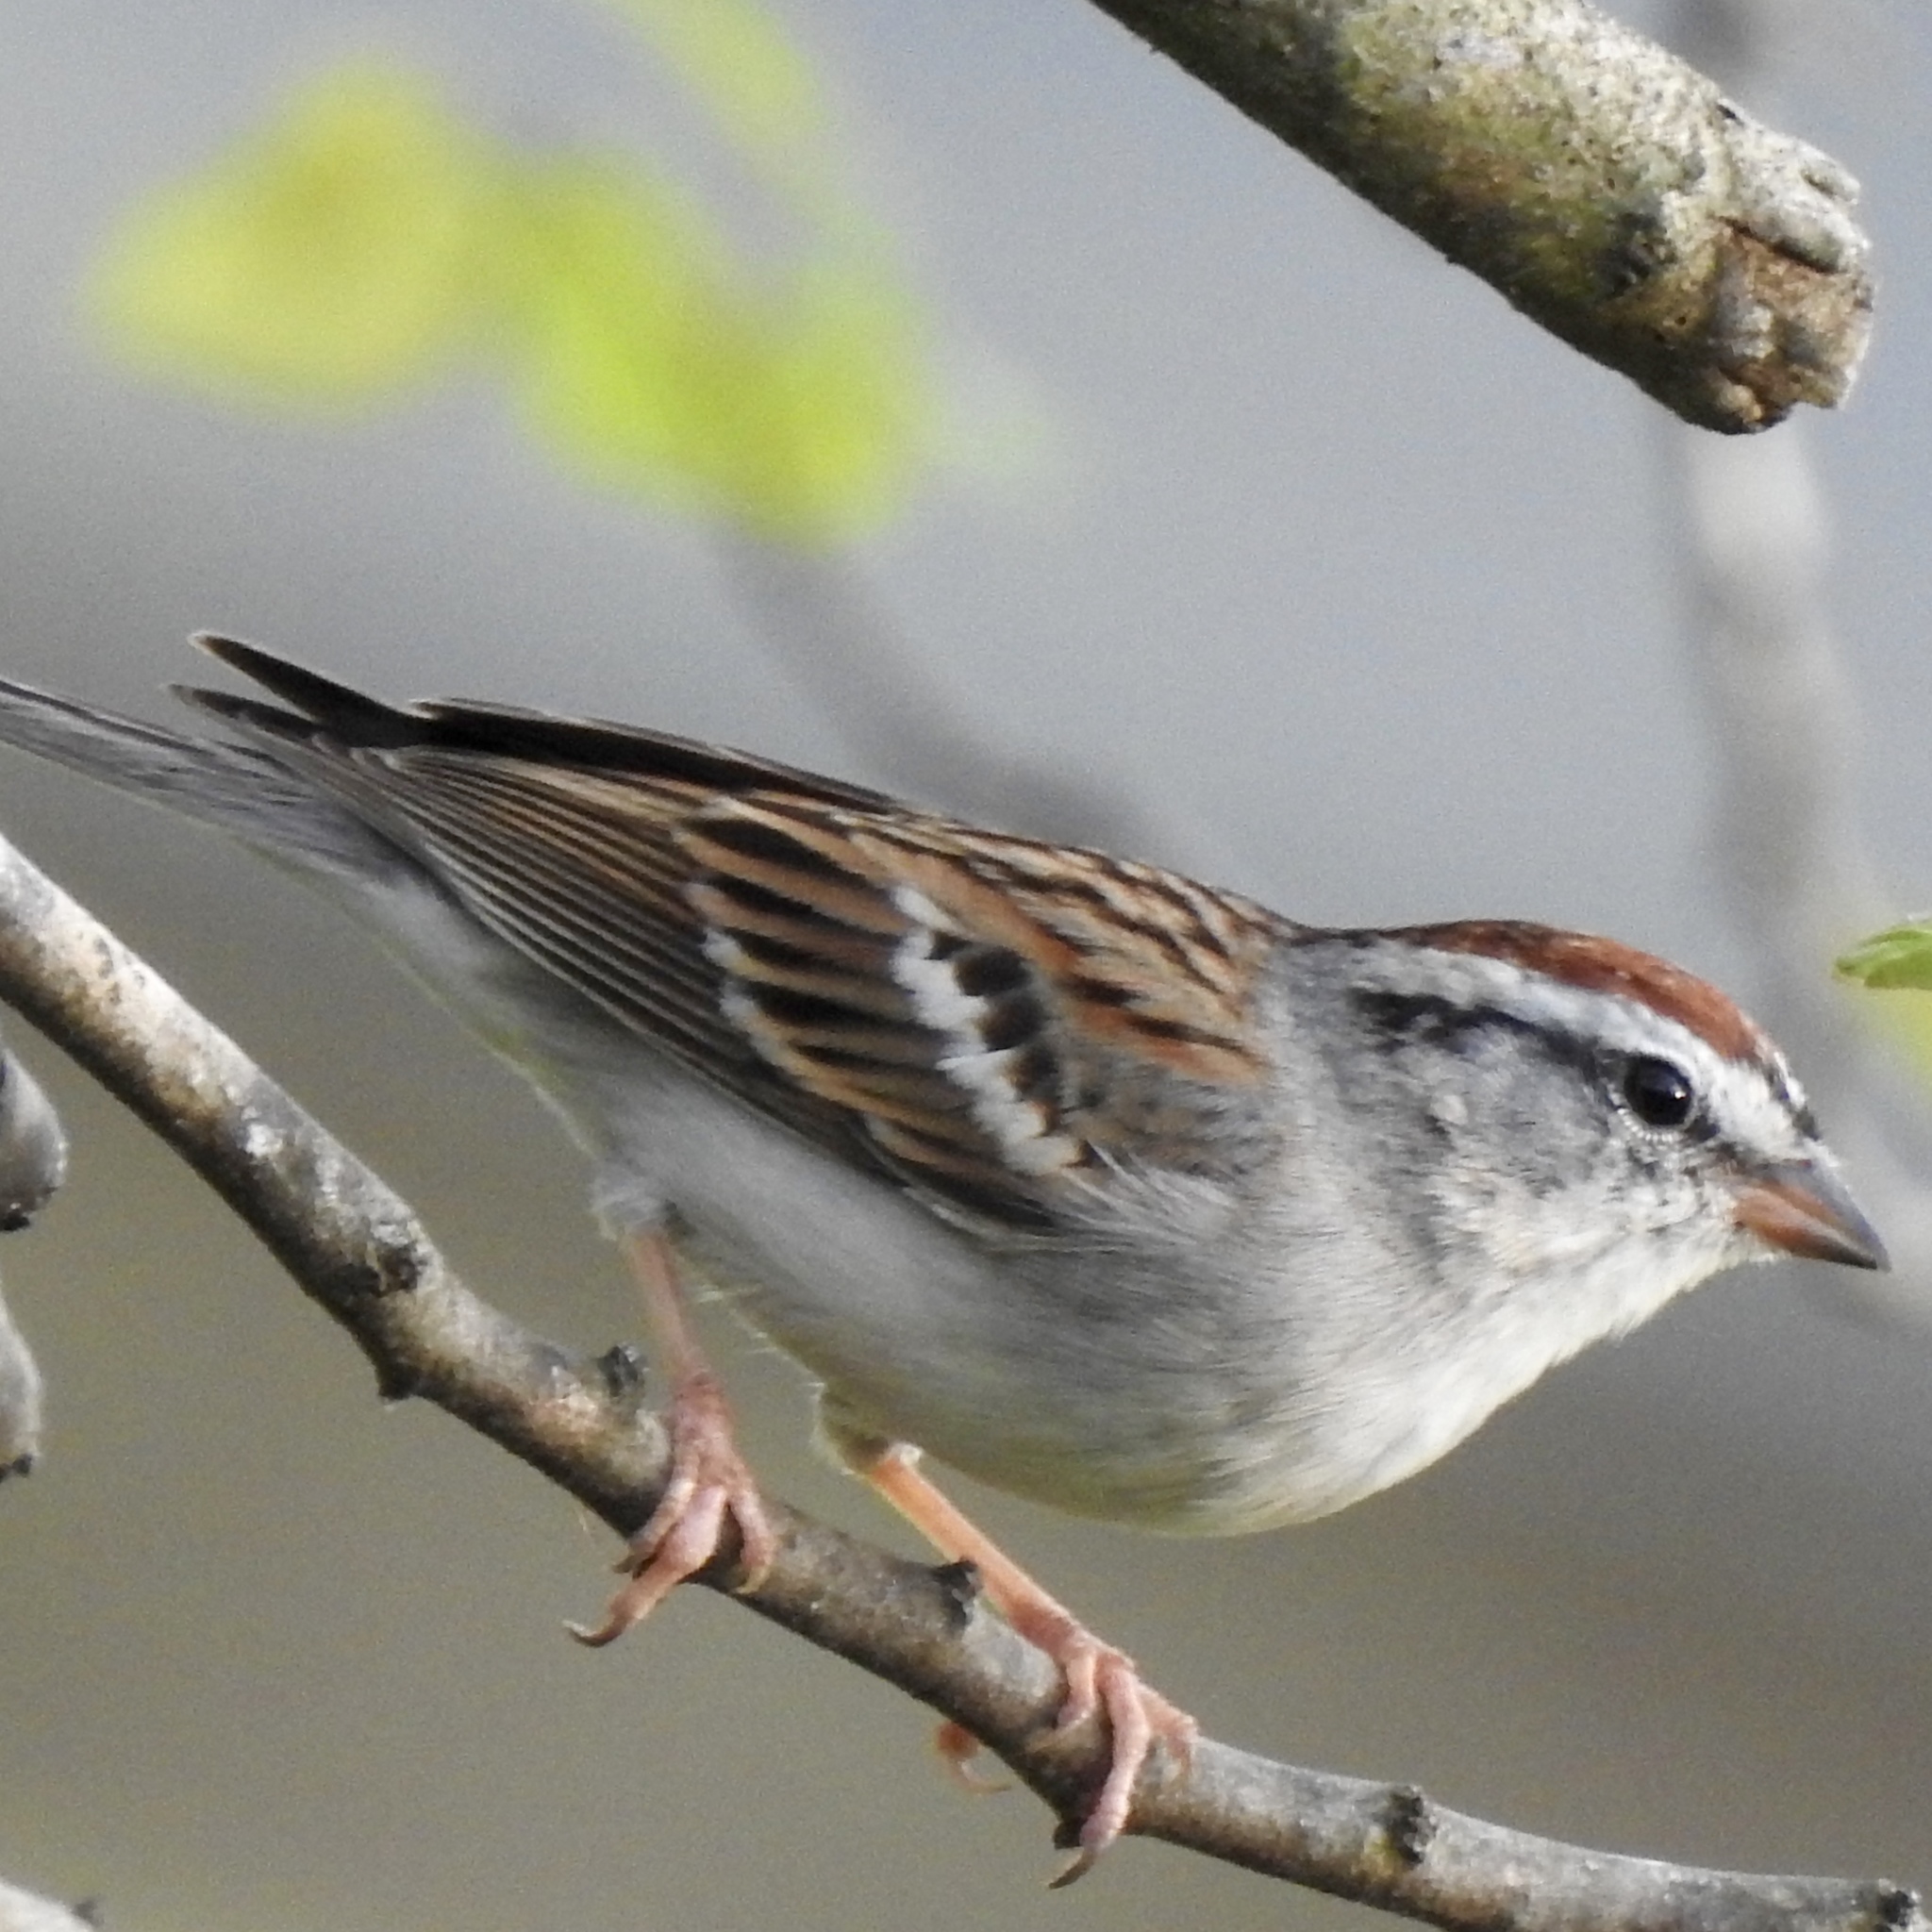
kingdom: Animalia
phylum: Chordata
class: Aves
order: Passeriformes
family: Passerellidae
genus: Spizella
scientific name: Spizella passerina
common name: Chipping sparrow
